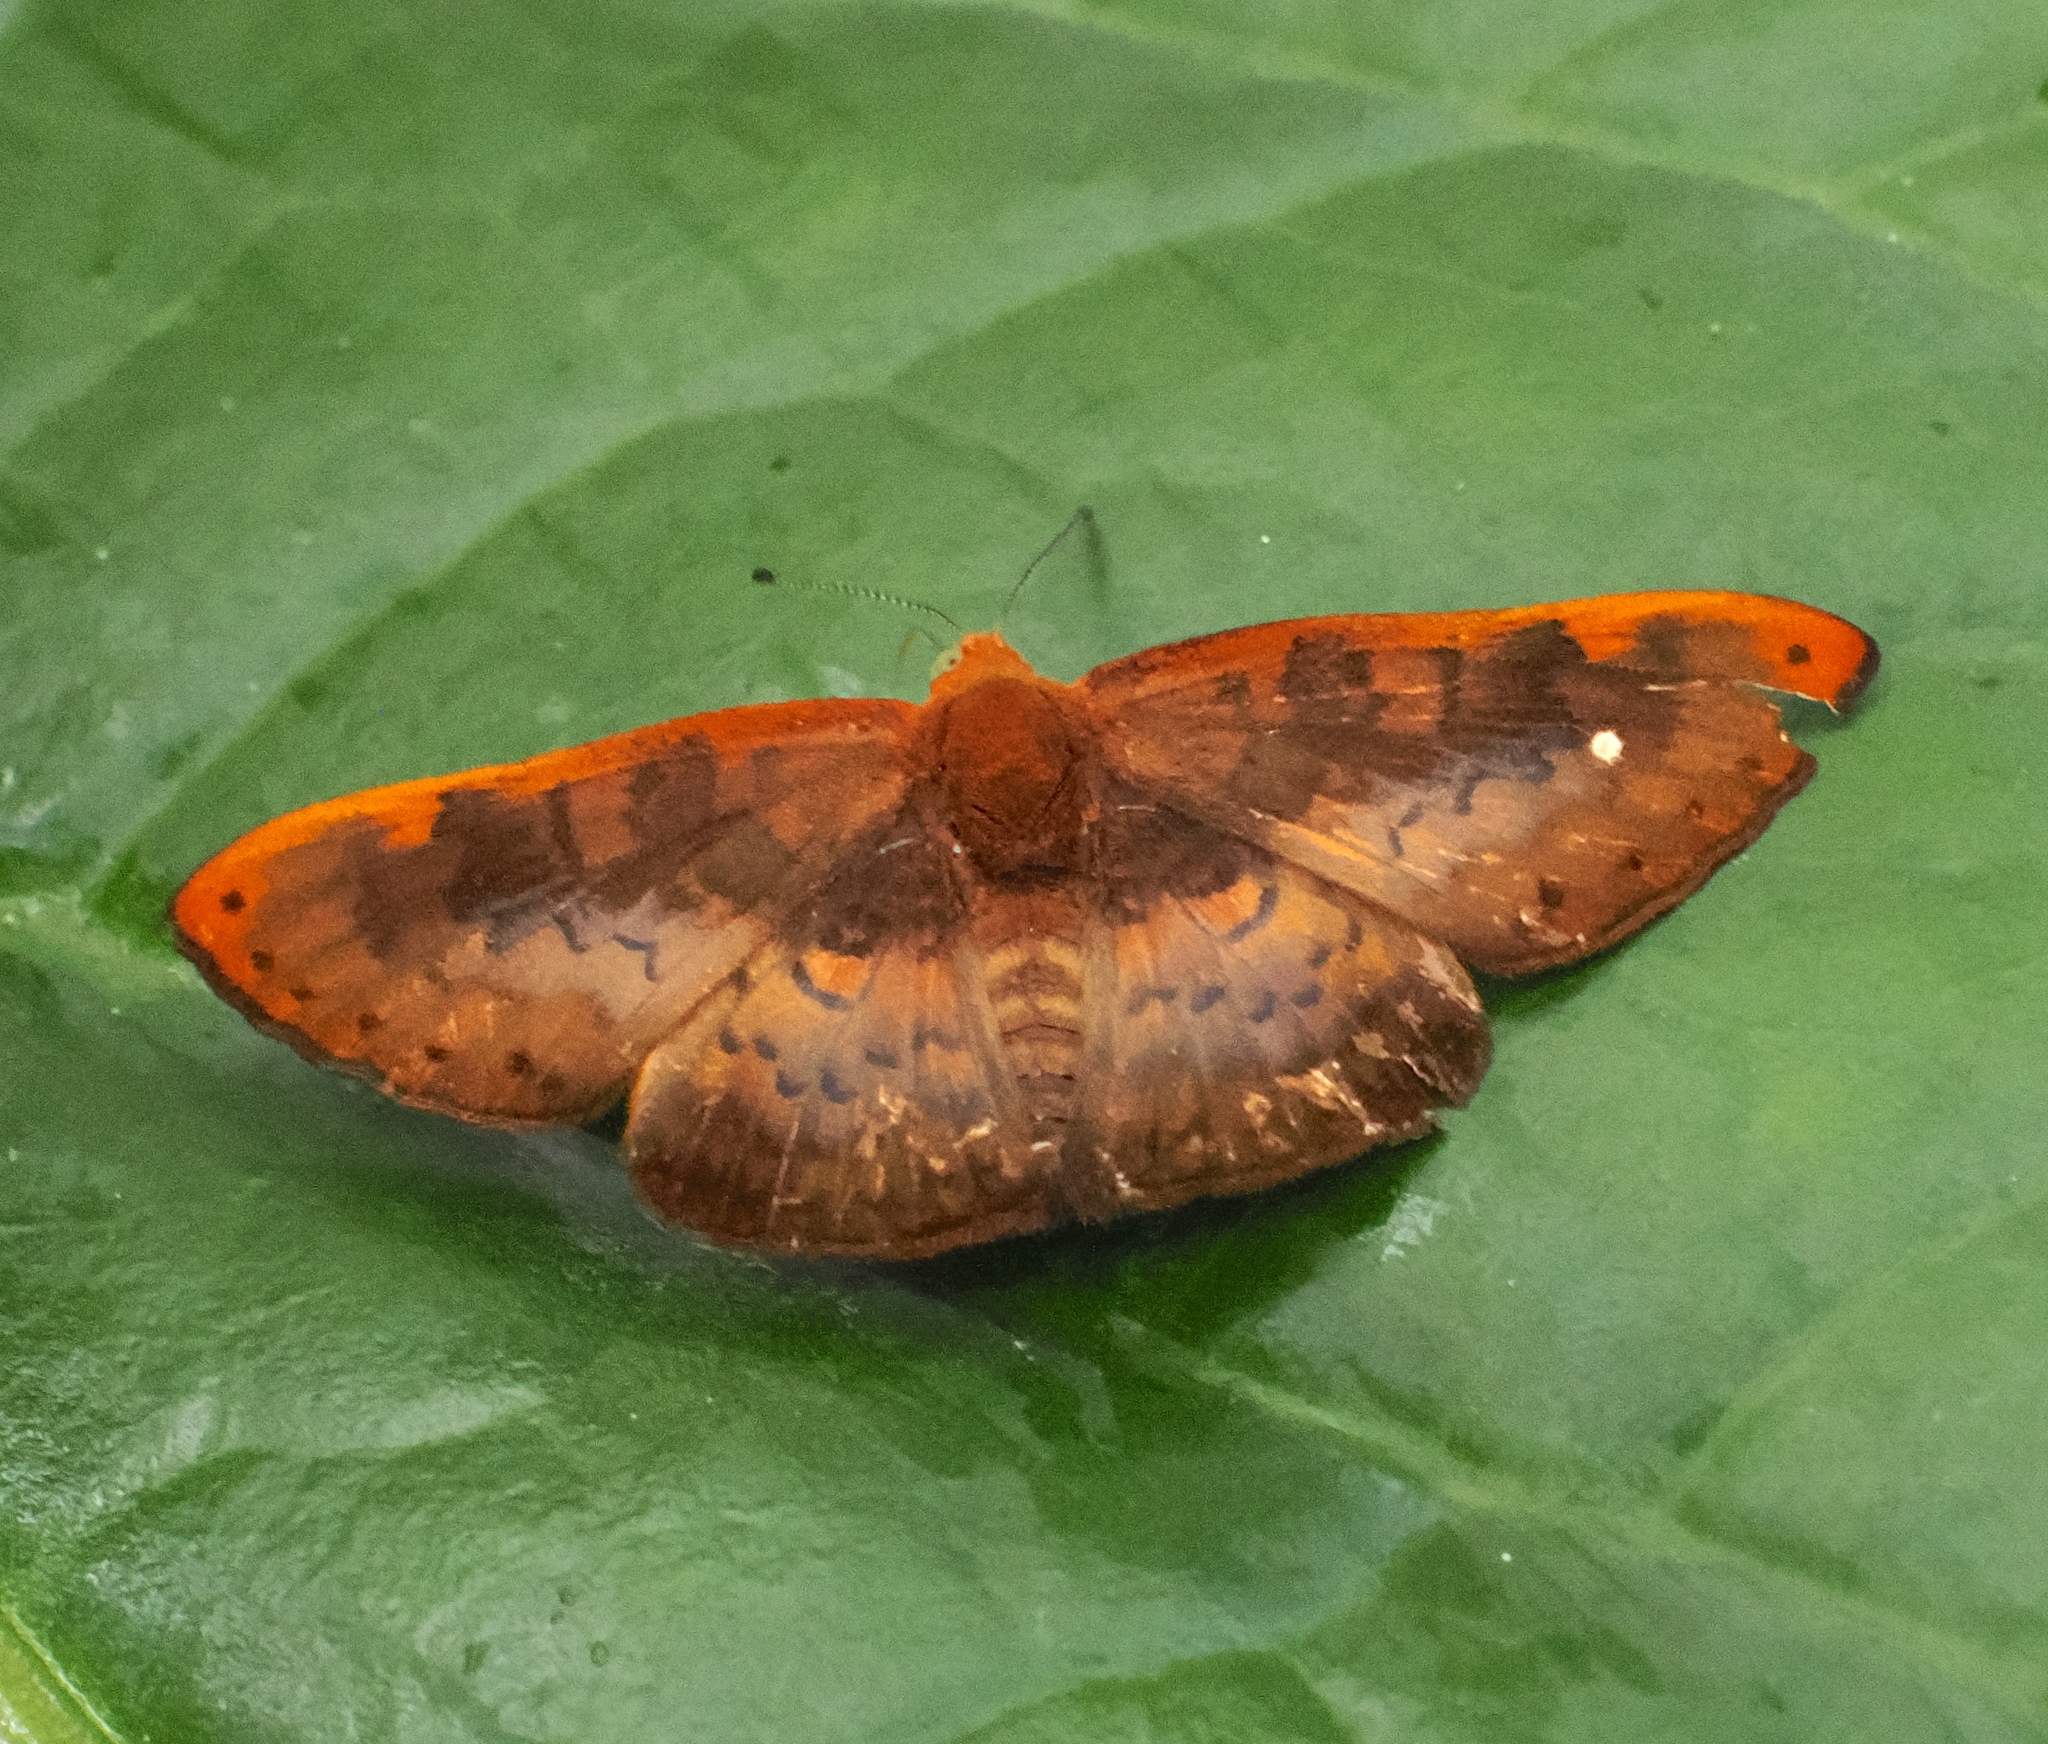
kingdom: Animalia
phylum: Arthropoda
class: Insecta
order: Lepidoptera
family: Lycaenidae
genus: Emesis
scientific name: Emesis brimo
